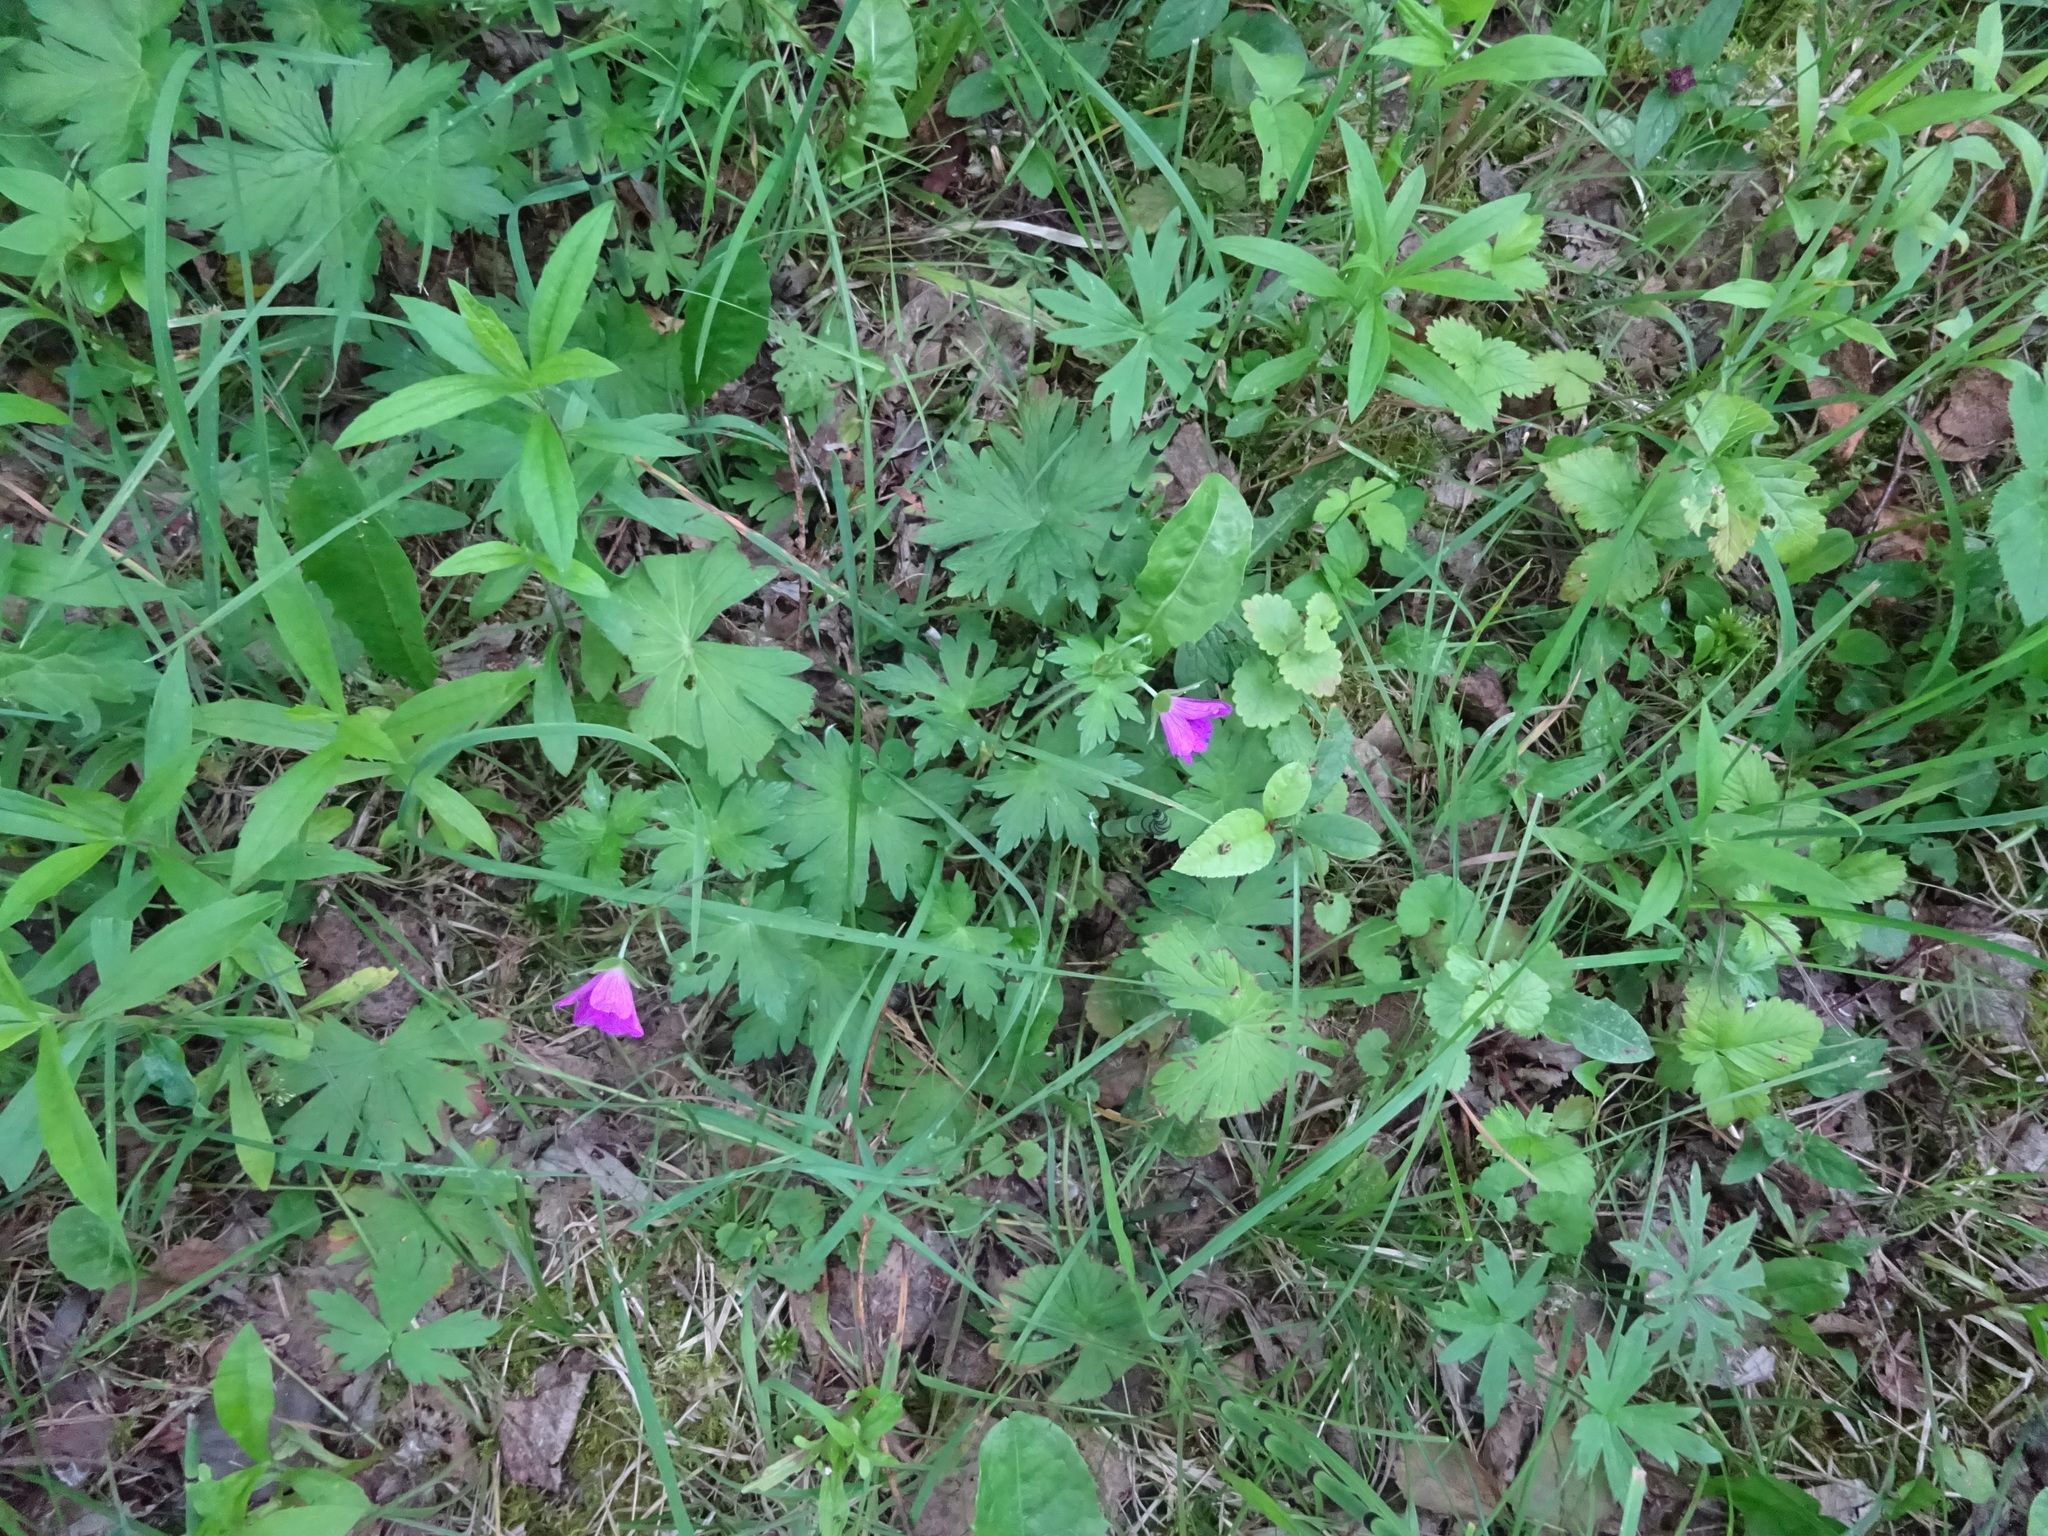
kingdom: Plantae
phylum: Tracheophyta
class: Magnoliopsida
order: Geraniales
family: Geraniaceae
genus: Geranium
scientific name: Geranium palustre
